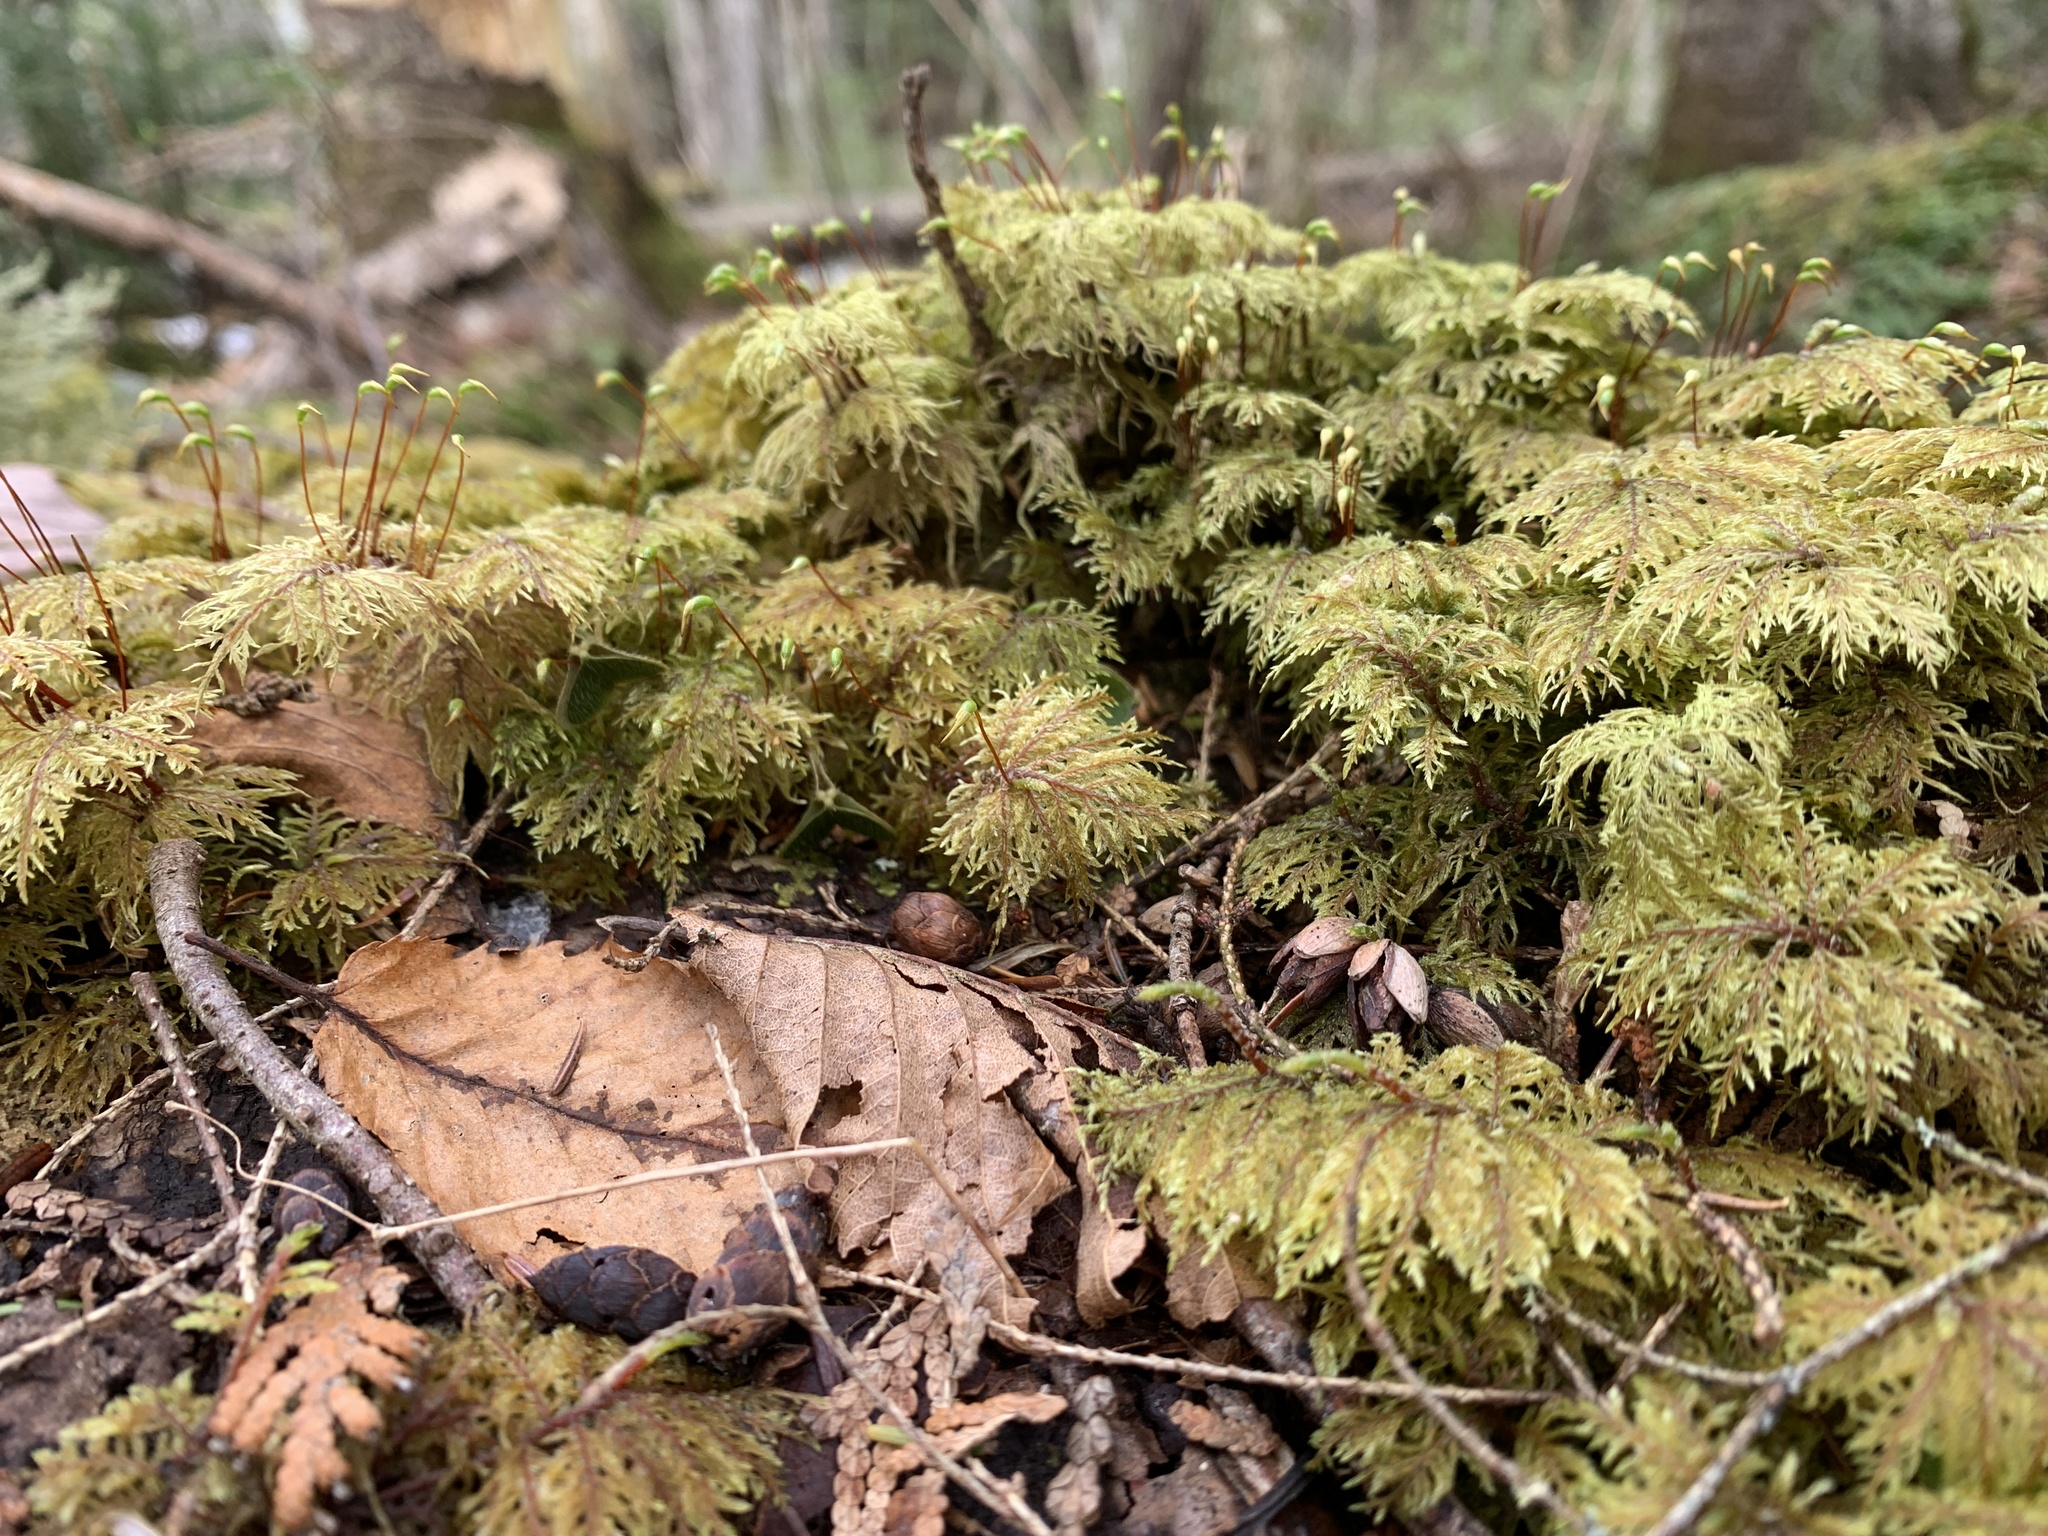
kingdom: Plantae
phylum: Bryophyta
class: Bryopsida
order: Hypnales
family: Hylocomiaceae
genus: Hylocomium
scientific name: Hylocomium splendens
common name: Stairstep moss
